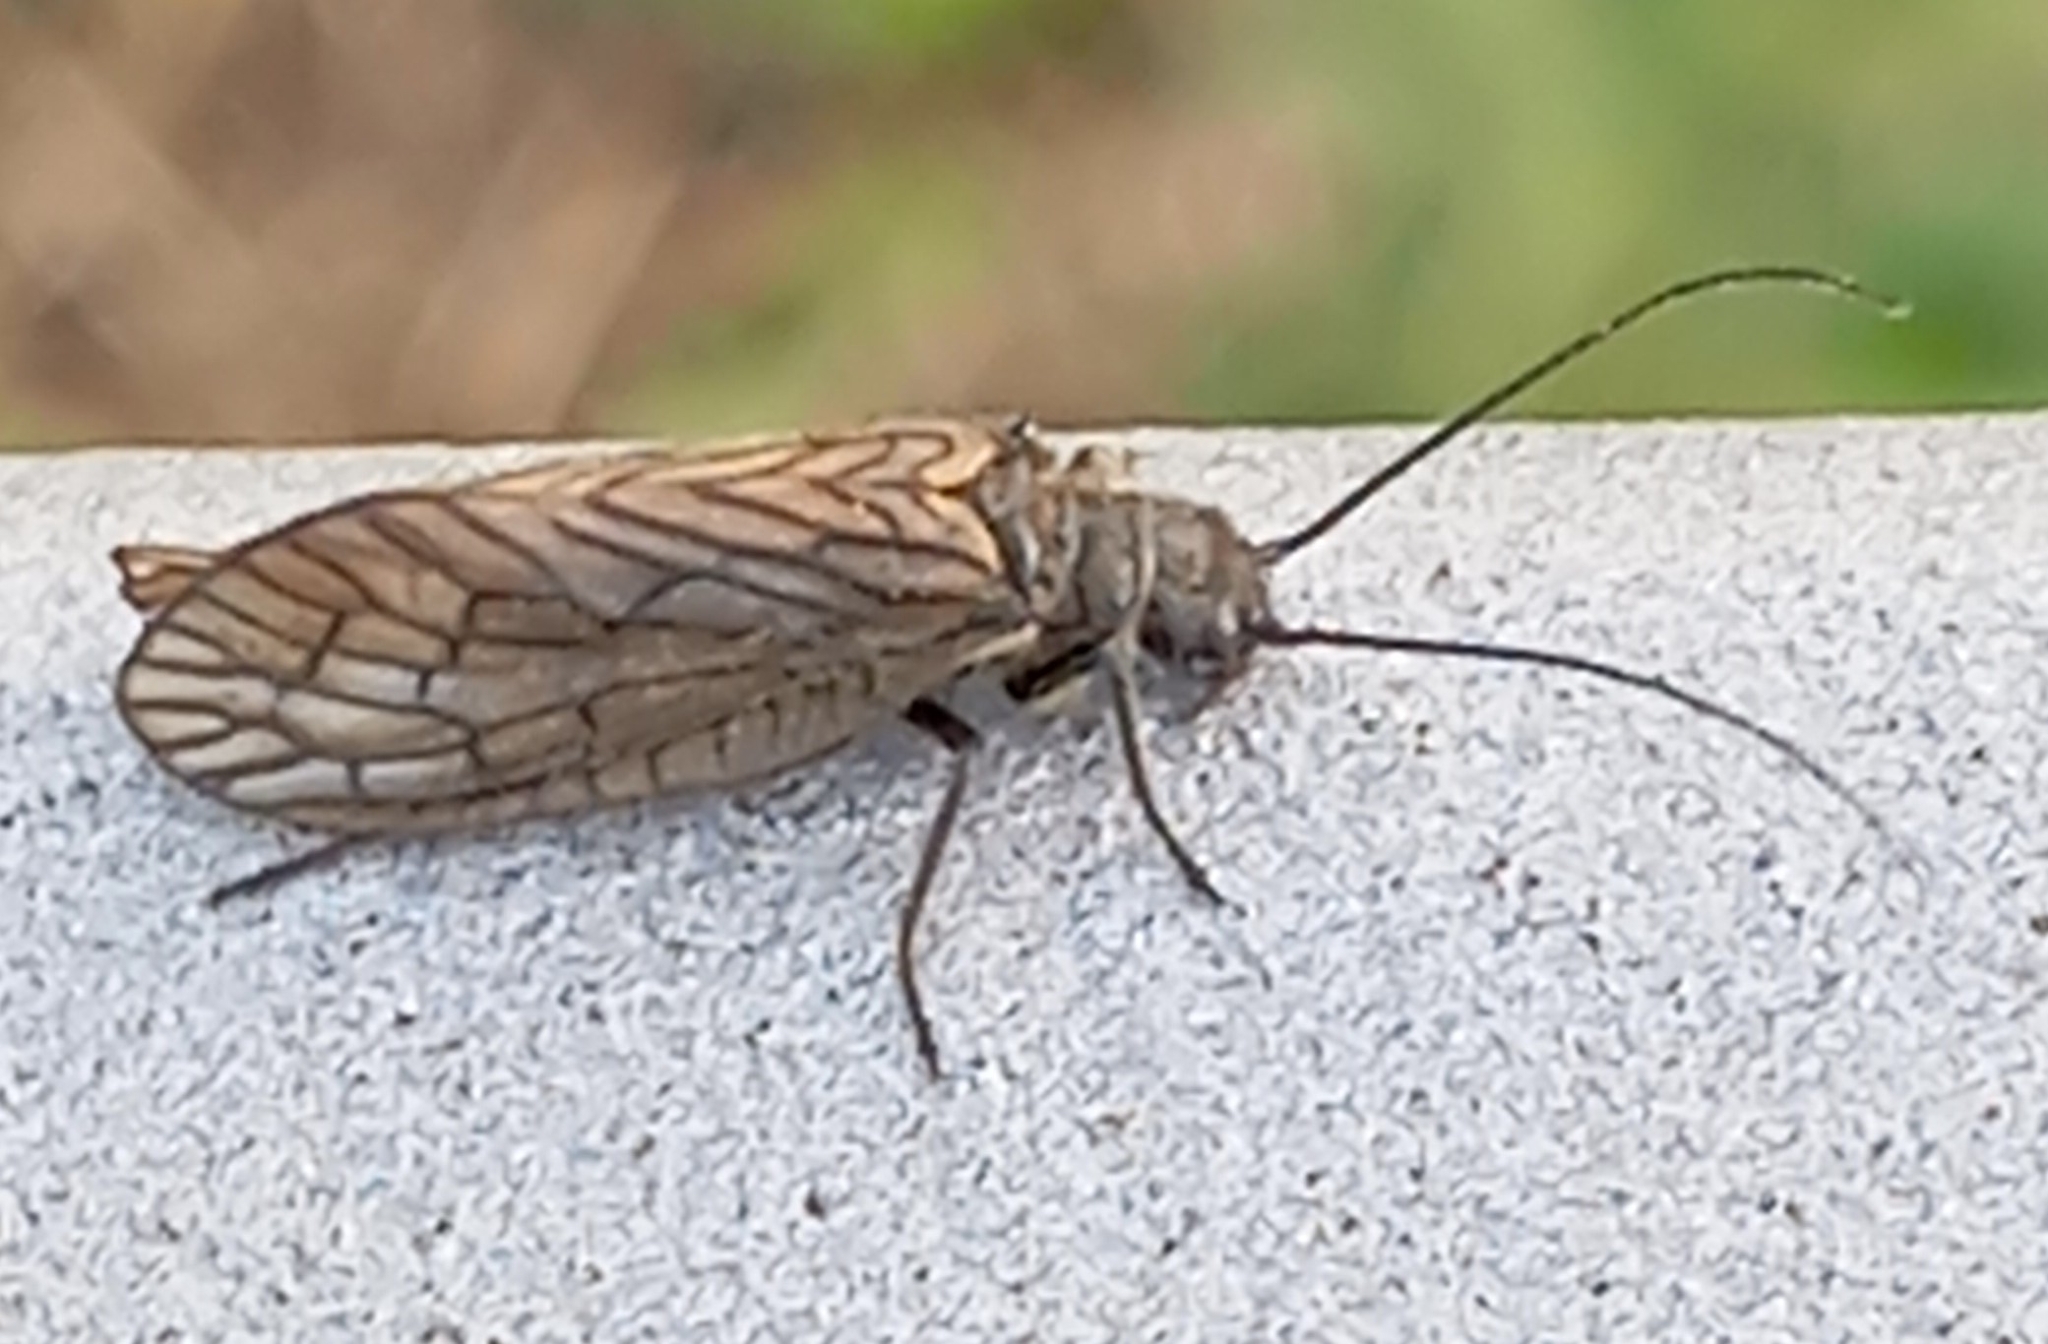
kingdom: Animalia
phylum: Arthropoda
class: Insecta
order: Megaloptera
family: Sialidae
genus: Sialis
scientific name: Sialis
